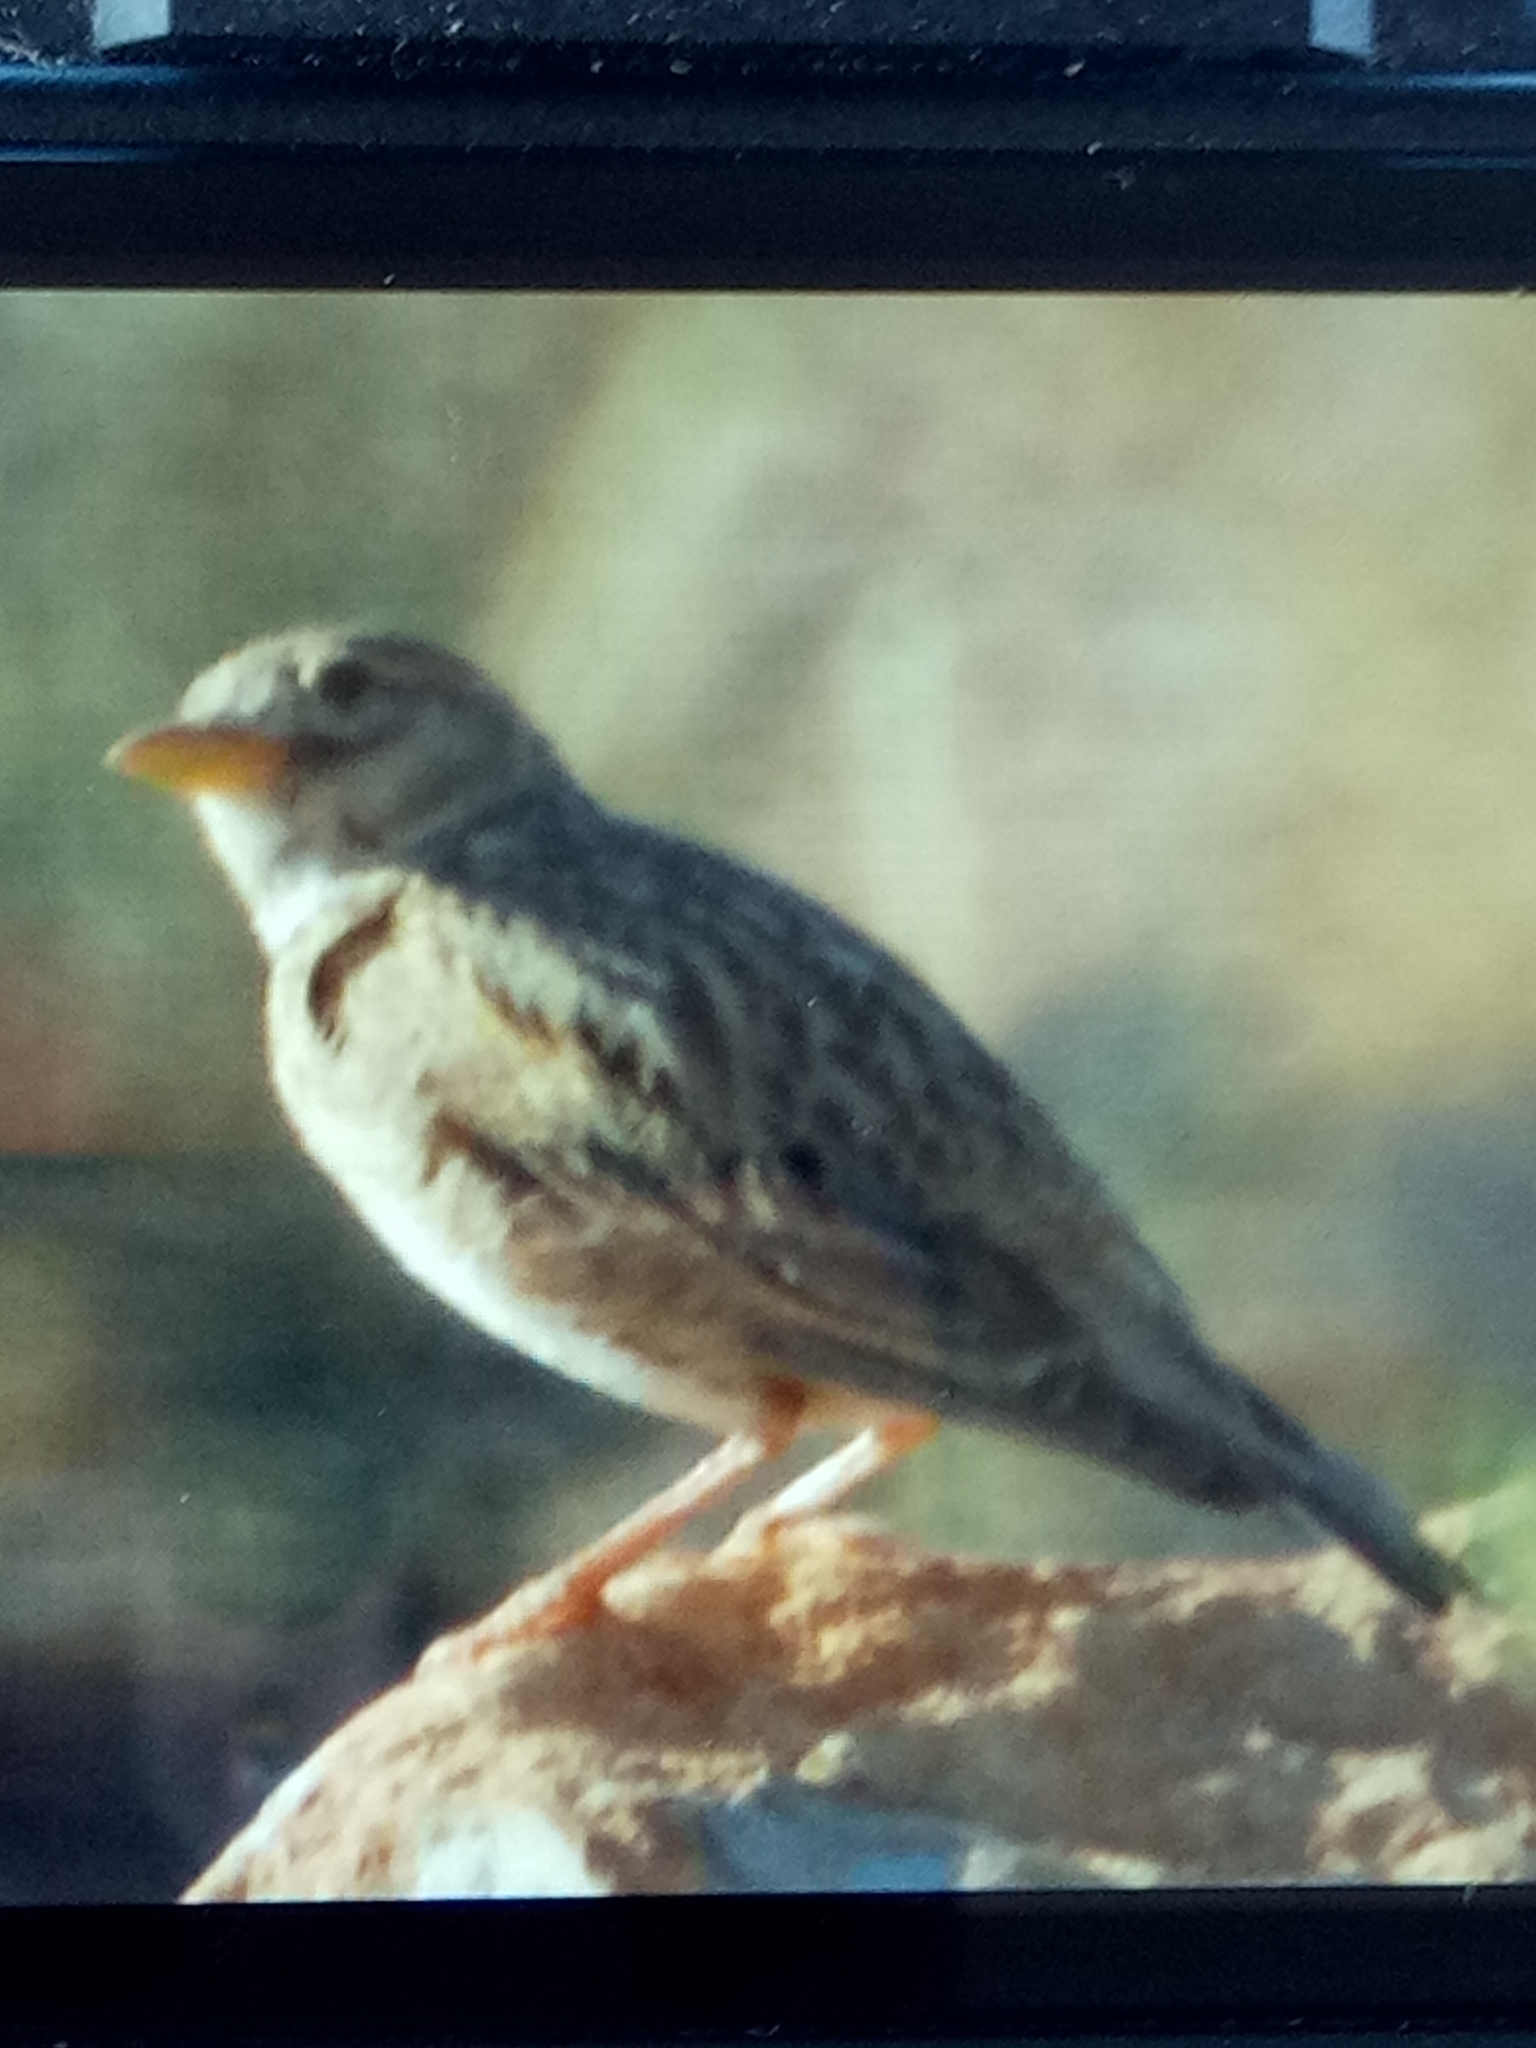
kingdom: Animalia
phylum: Chordata
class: Aves
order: Passeriformes
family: Alaudidae
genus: Melanocorypha
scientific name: Melanocorypha calandra
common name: Calandra lark
